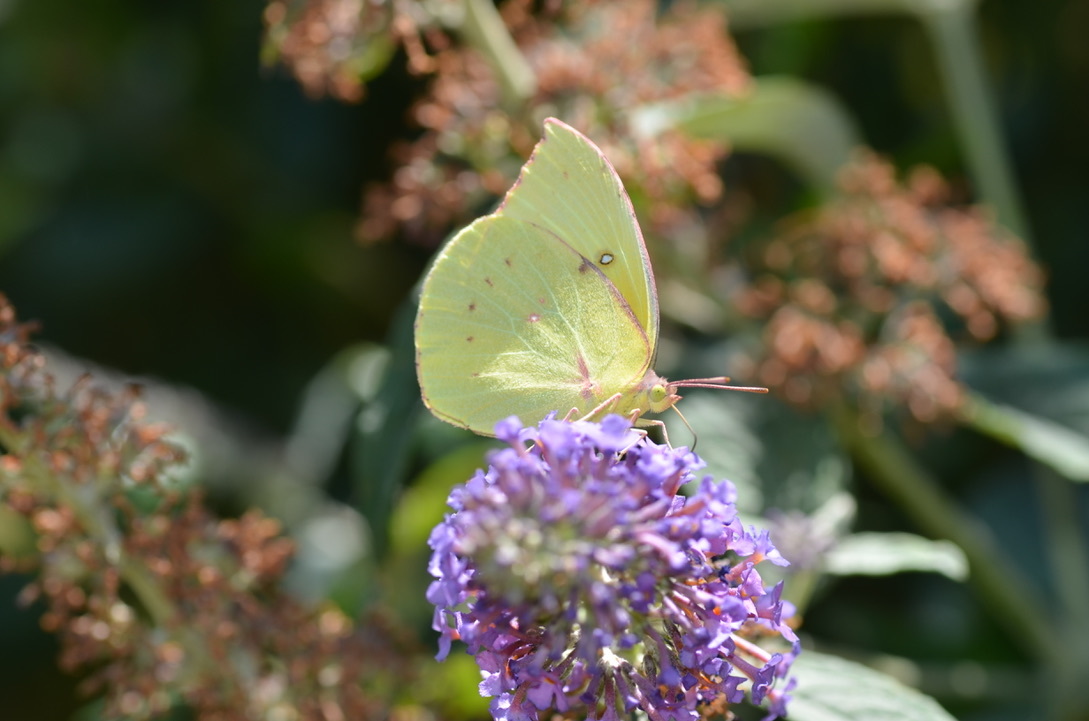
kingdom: Animalia
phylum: Arthropoda
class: Insecta
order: Lepidoptera
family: Pieridae
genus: Zerene
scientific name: Zerene eurydice
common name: California dogface
